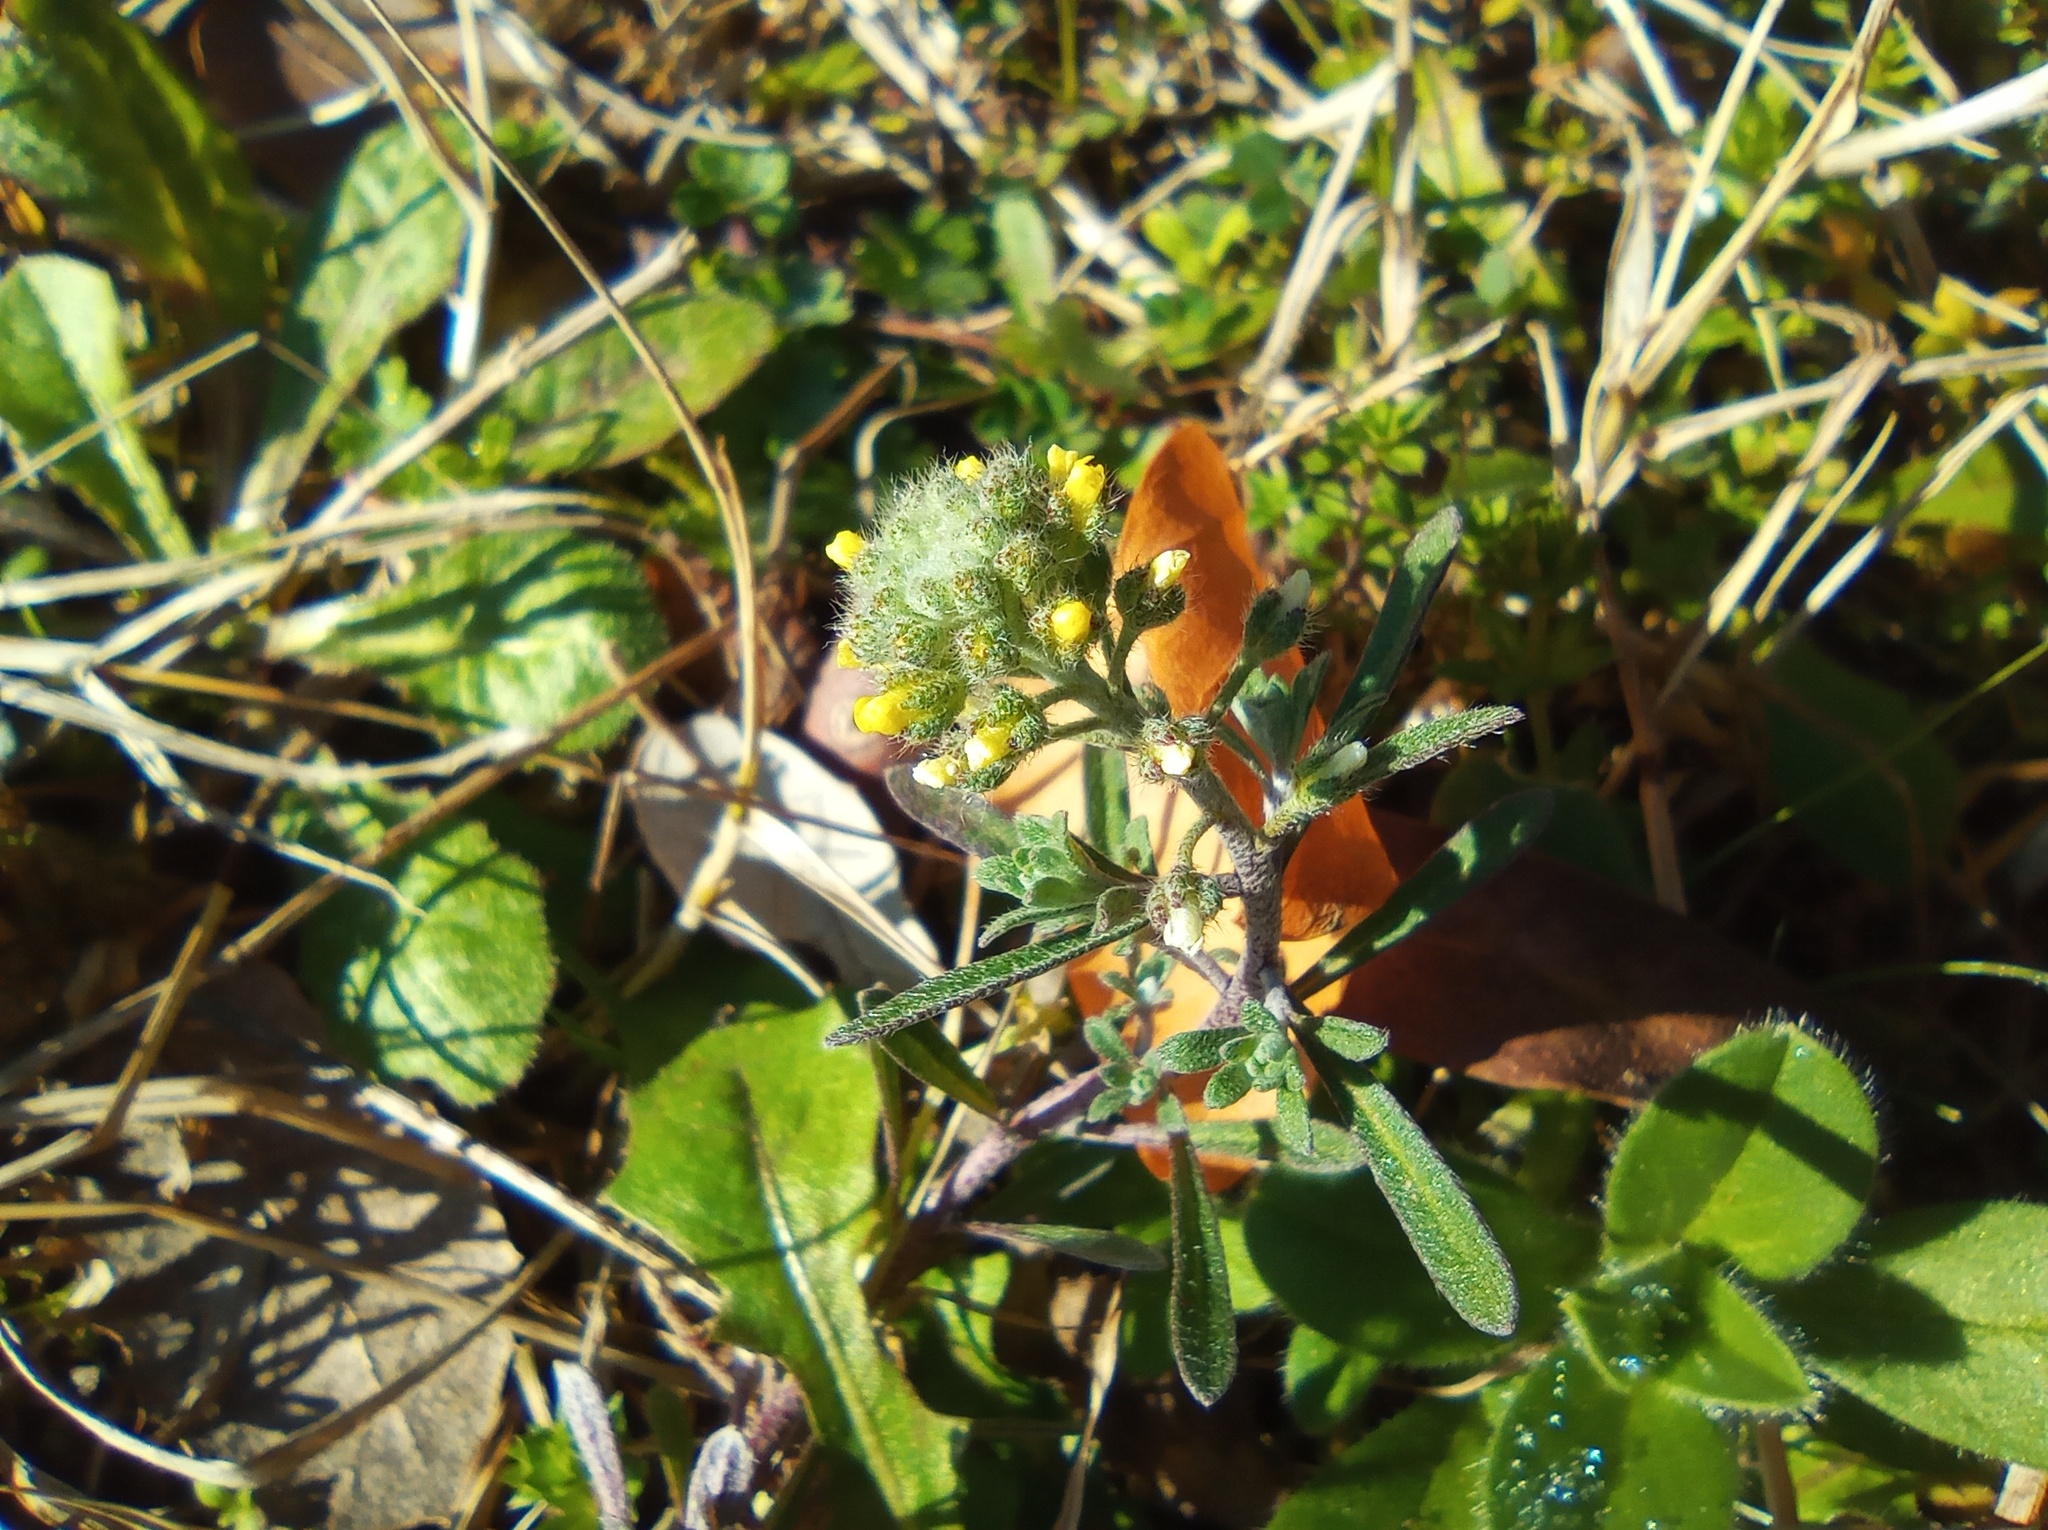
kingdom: Plantae
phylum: Tracheophyta
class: Magnoliopsida
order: Brassicales
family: Brassicaceae
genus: Alyssum
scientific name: Alyssum alyssoides
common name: Small alison
